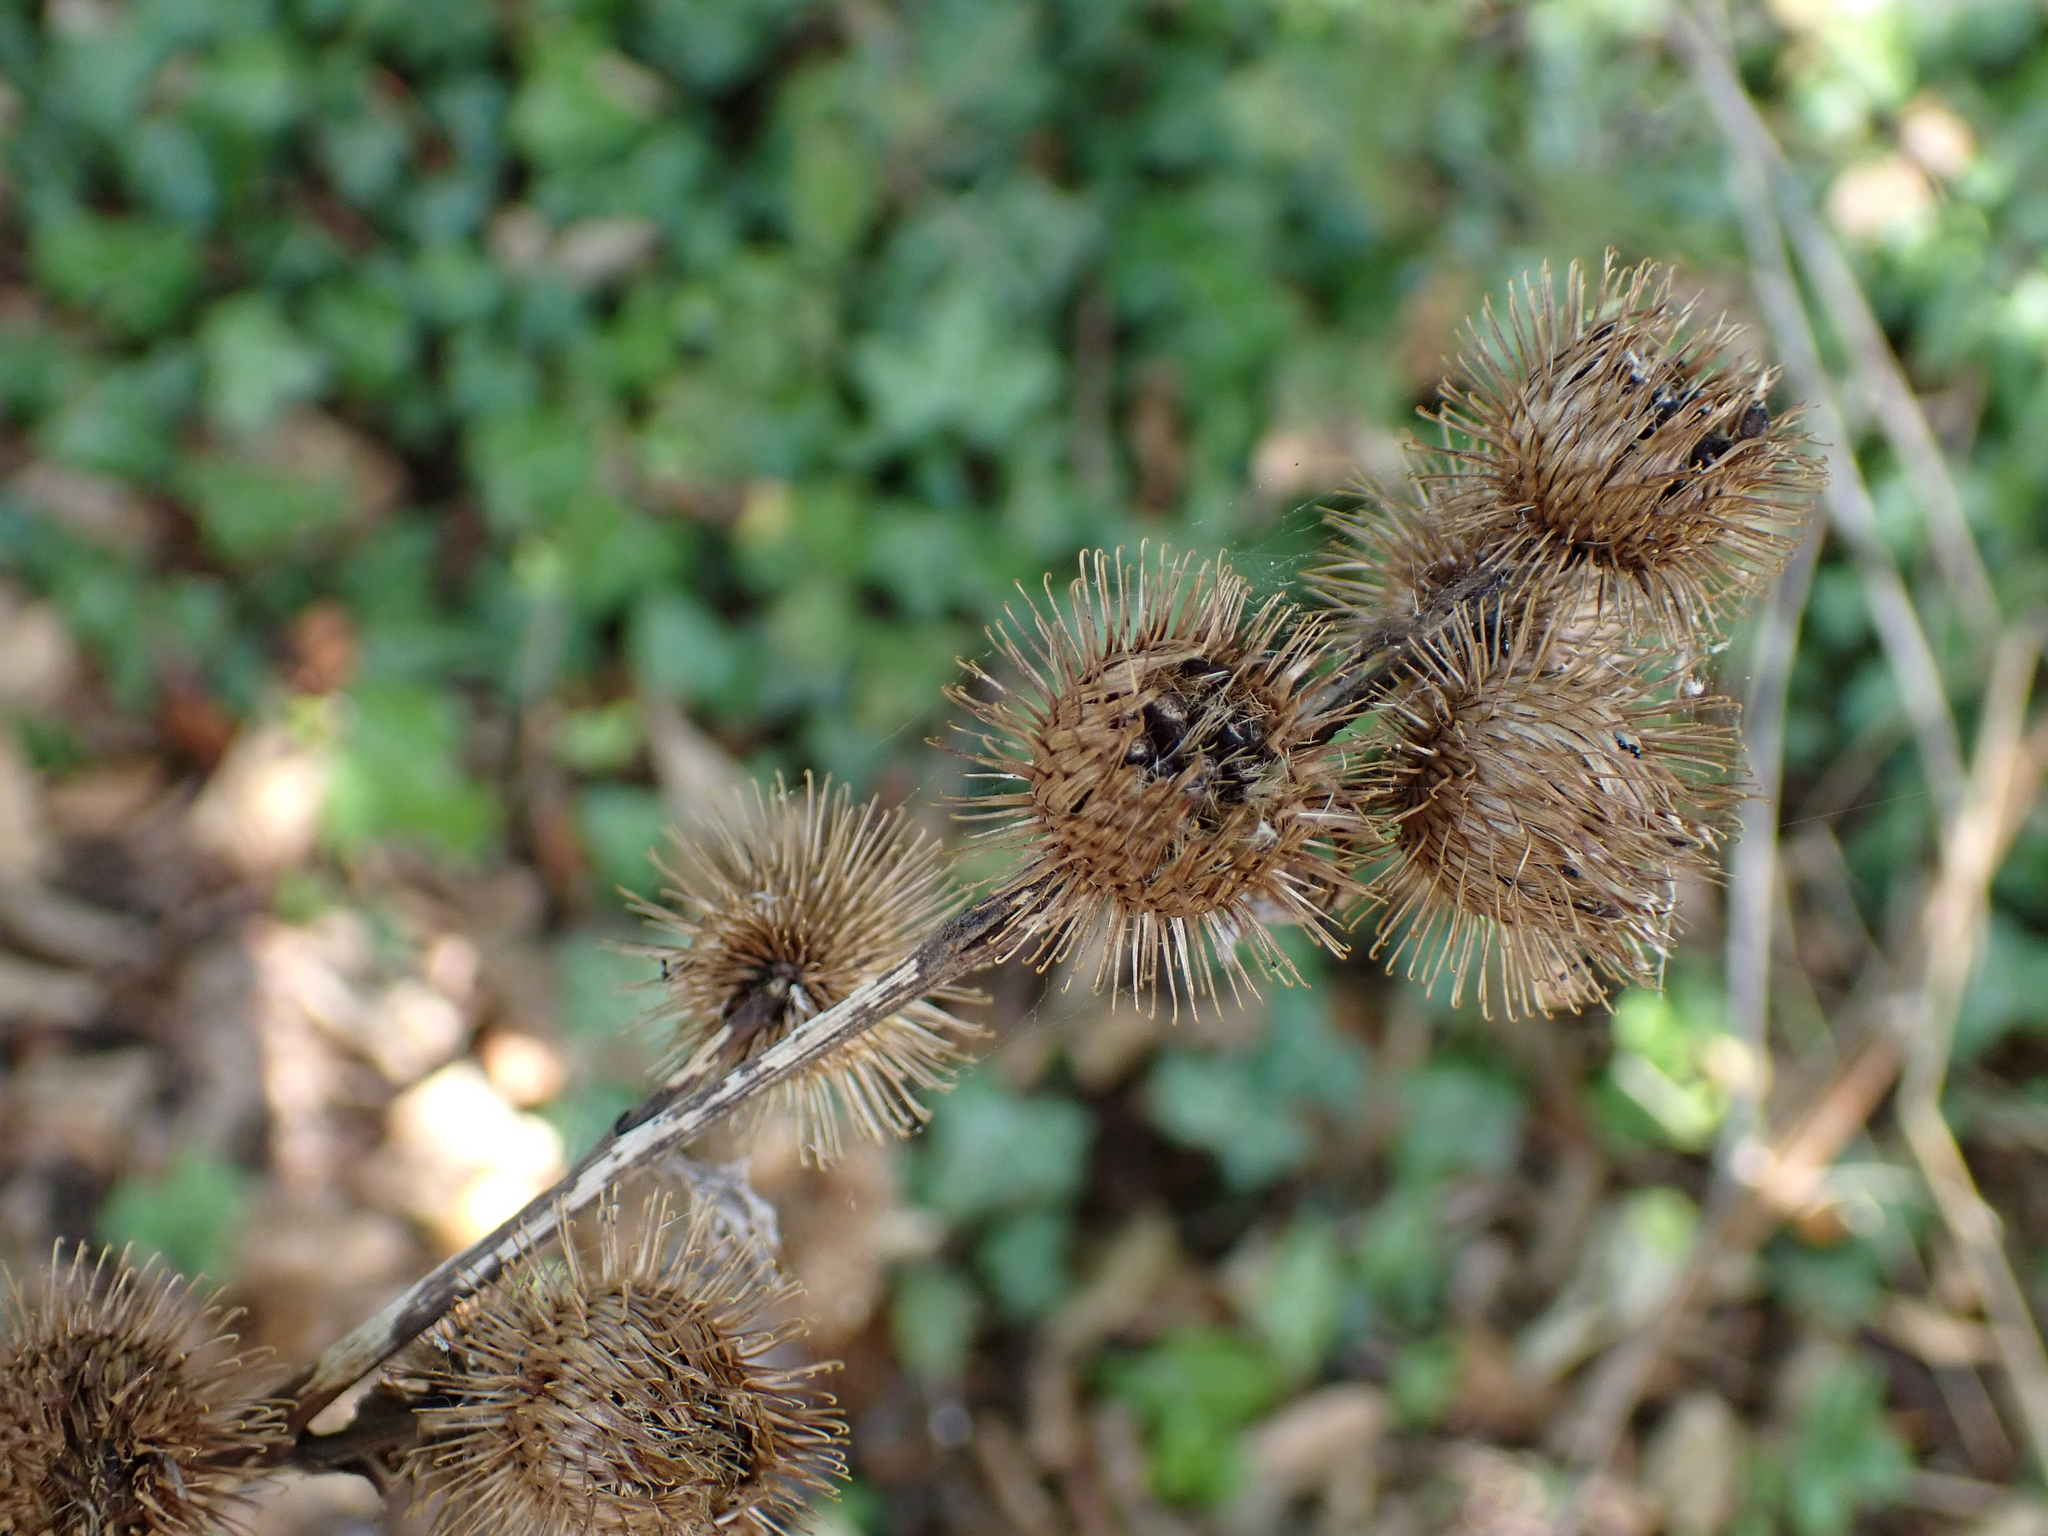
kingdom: Plantae
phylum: Tracheophyta
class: Magnoliopsida
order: Asterales
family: Asteraceae
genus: Arctium
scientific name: Arctium minus
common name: Lesser burdock
